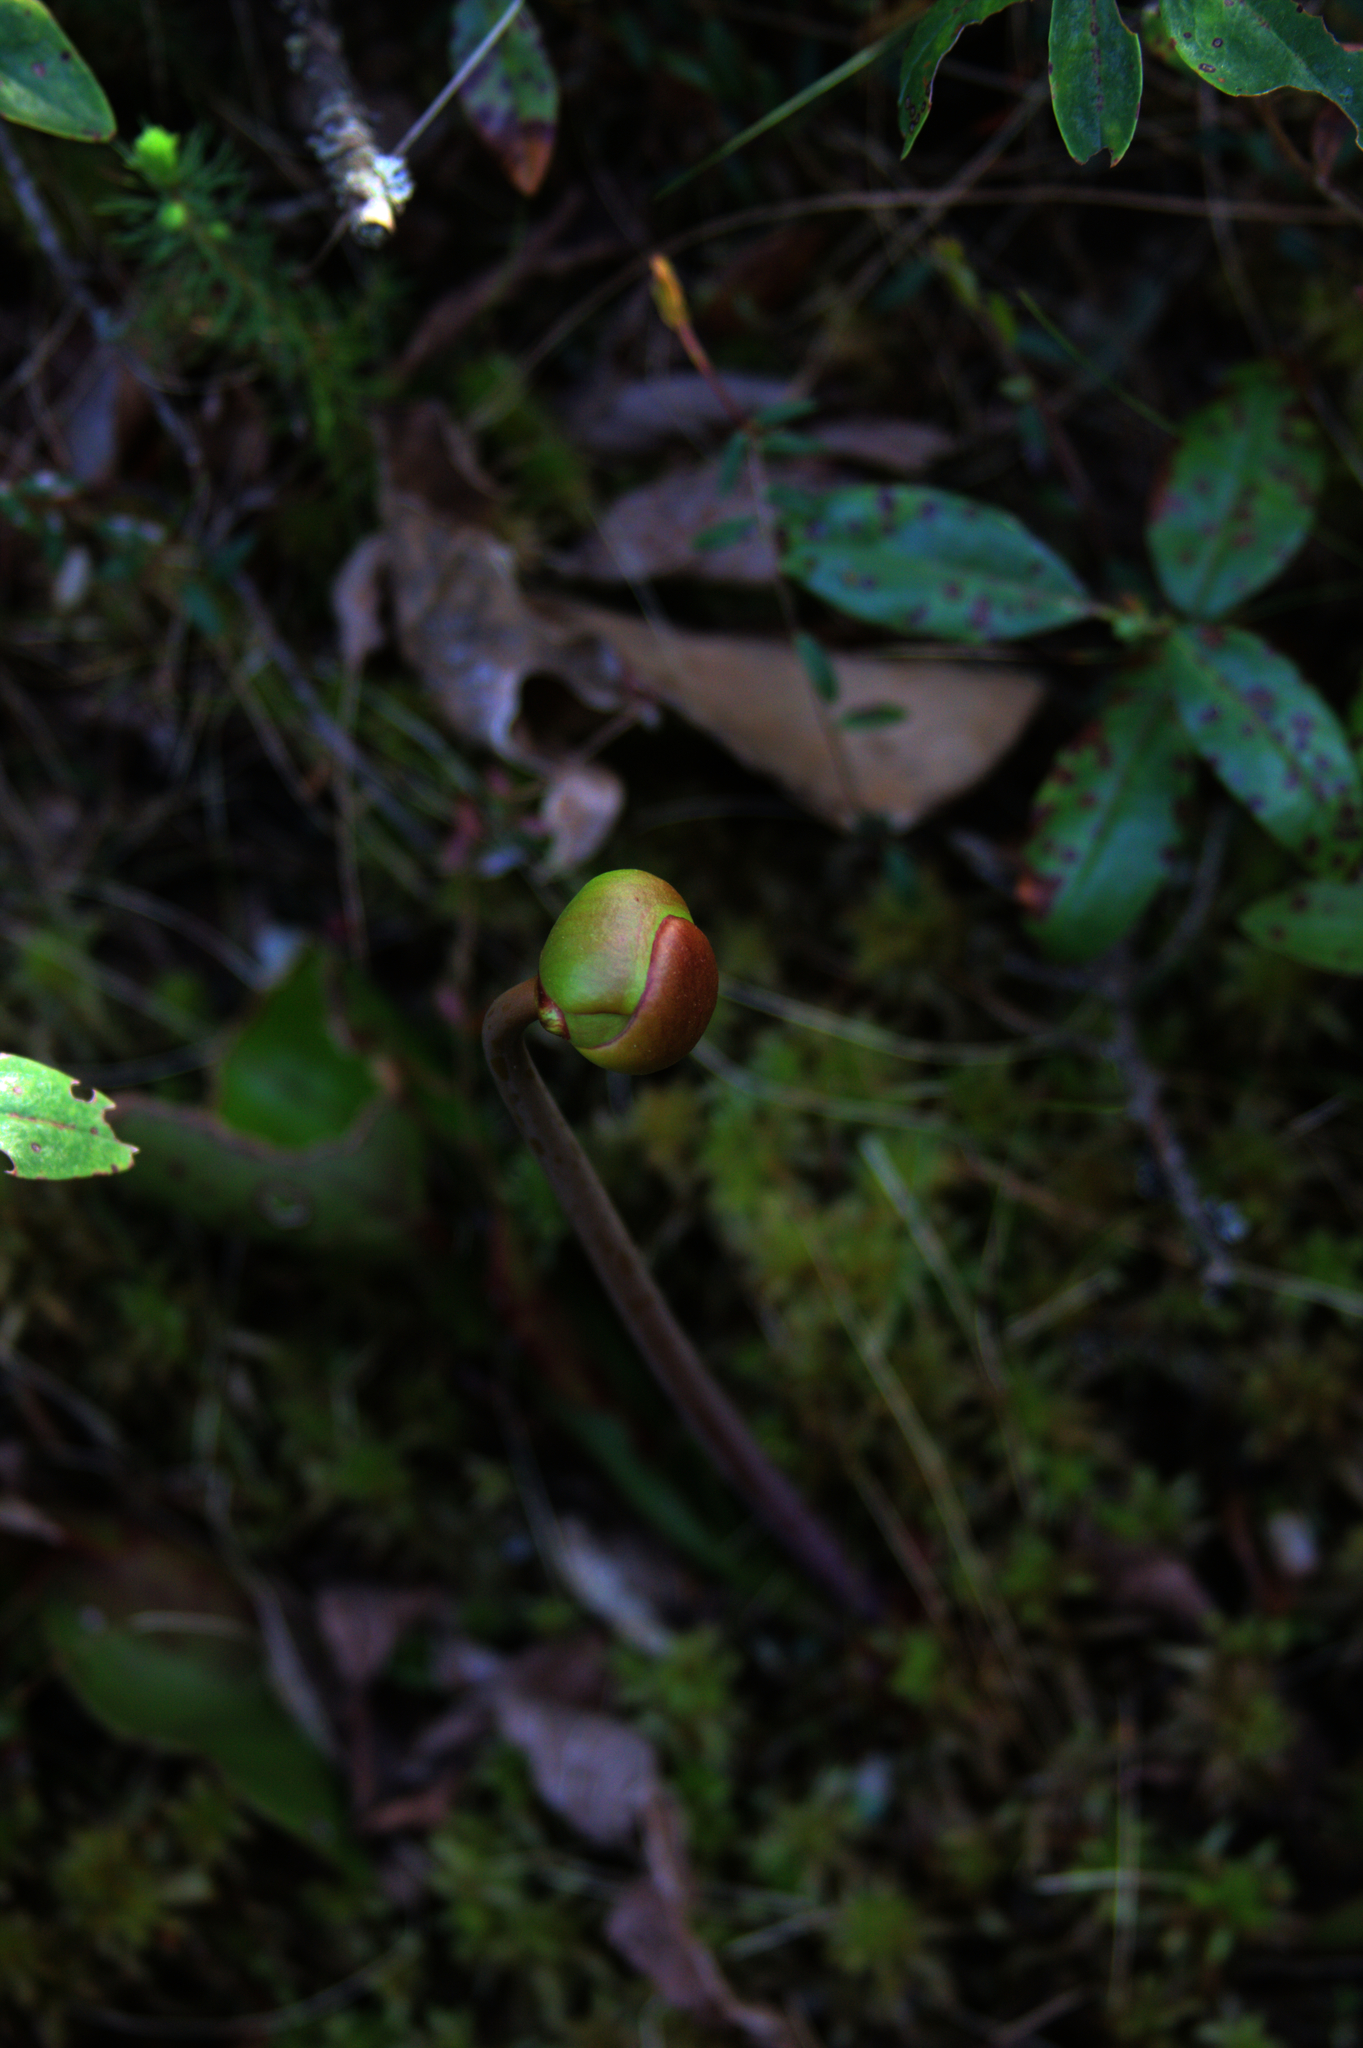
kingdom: Plantae
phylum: Tracheophyta
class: Magnoliopsida
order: Ericales
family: Sarraceniaceae
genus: Sarracenia
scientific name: Sarracenia purpurea
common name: Pitcherplant
